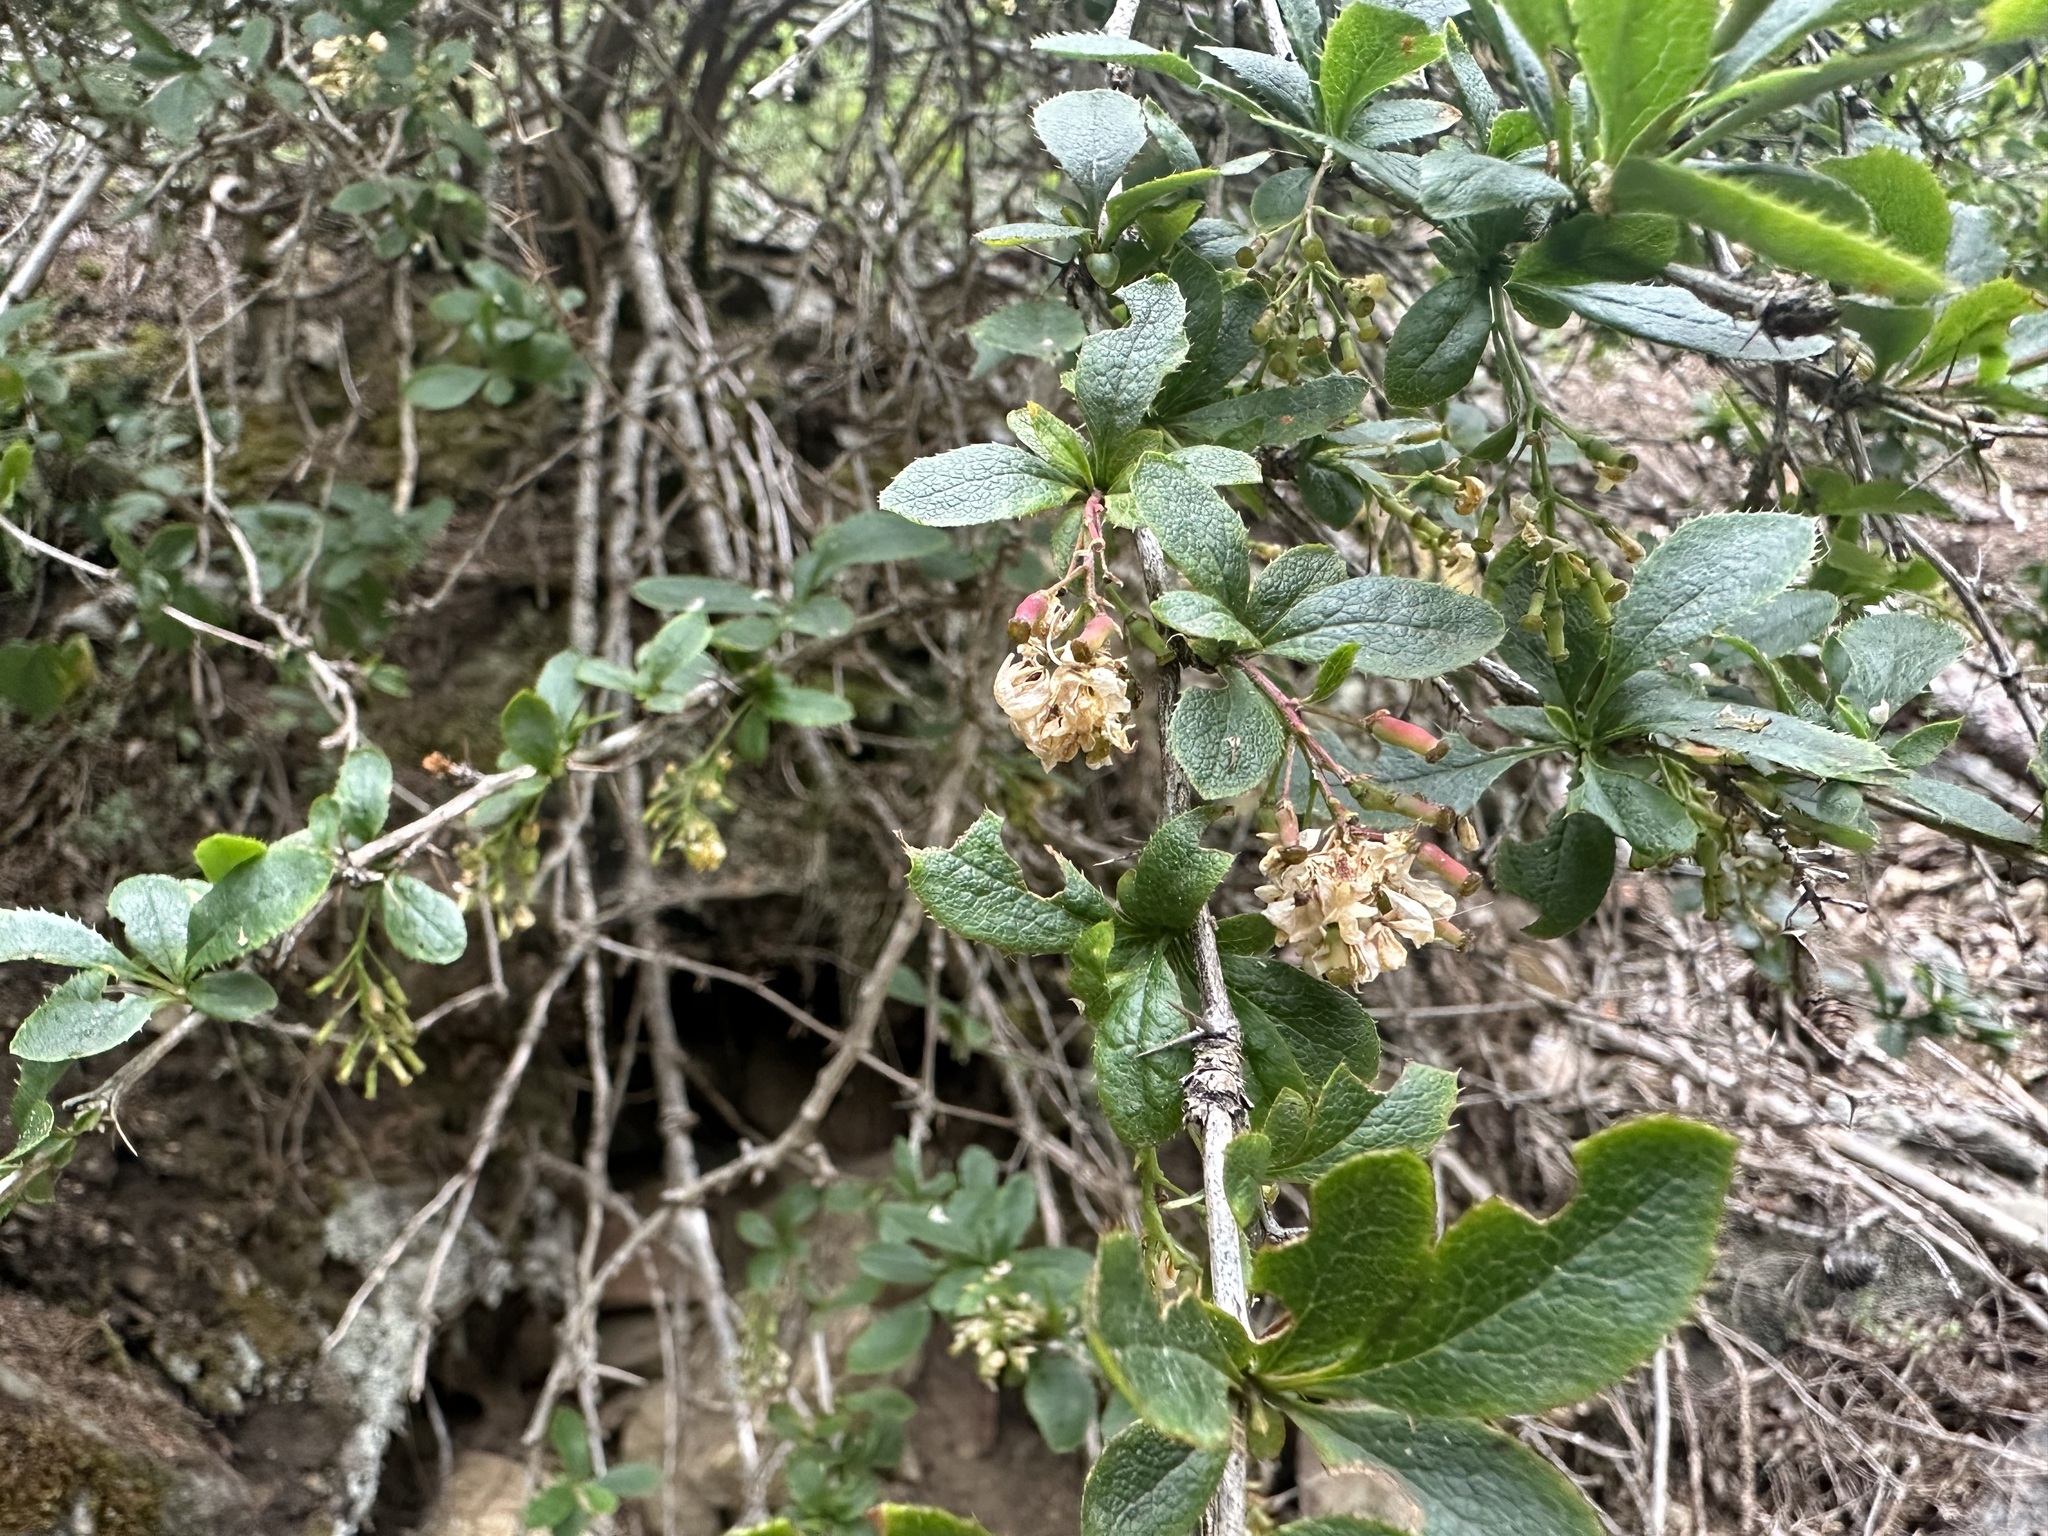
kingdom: Plantae
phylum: Tracheophyta
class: Magnoliopsida
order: Ranunculales
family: Berberidaceae
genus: Berberis
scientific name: Berberis vulgaris
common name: Barberry
